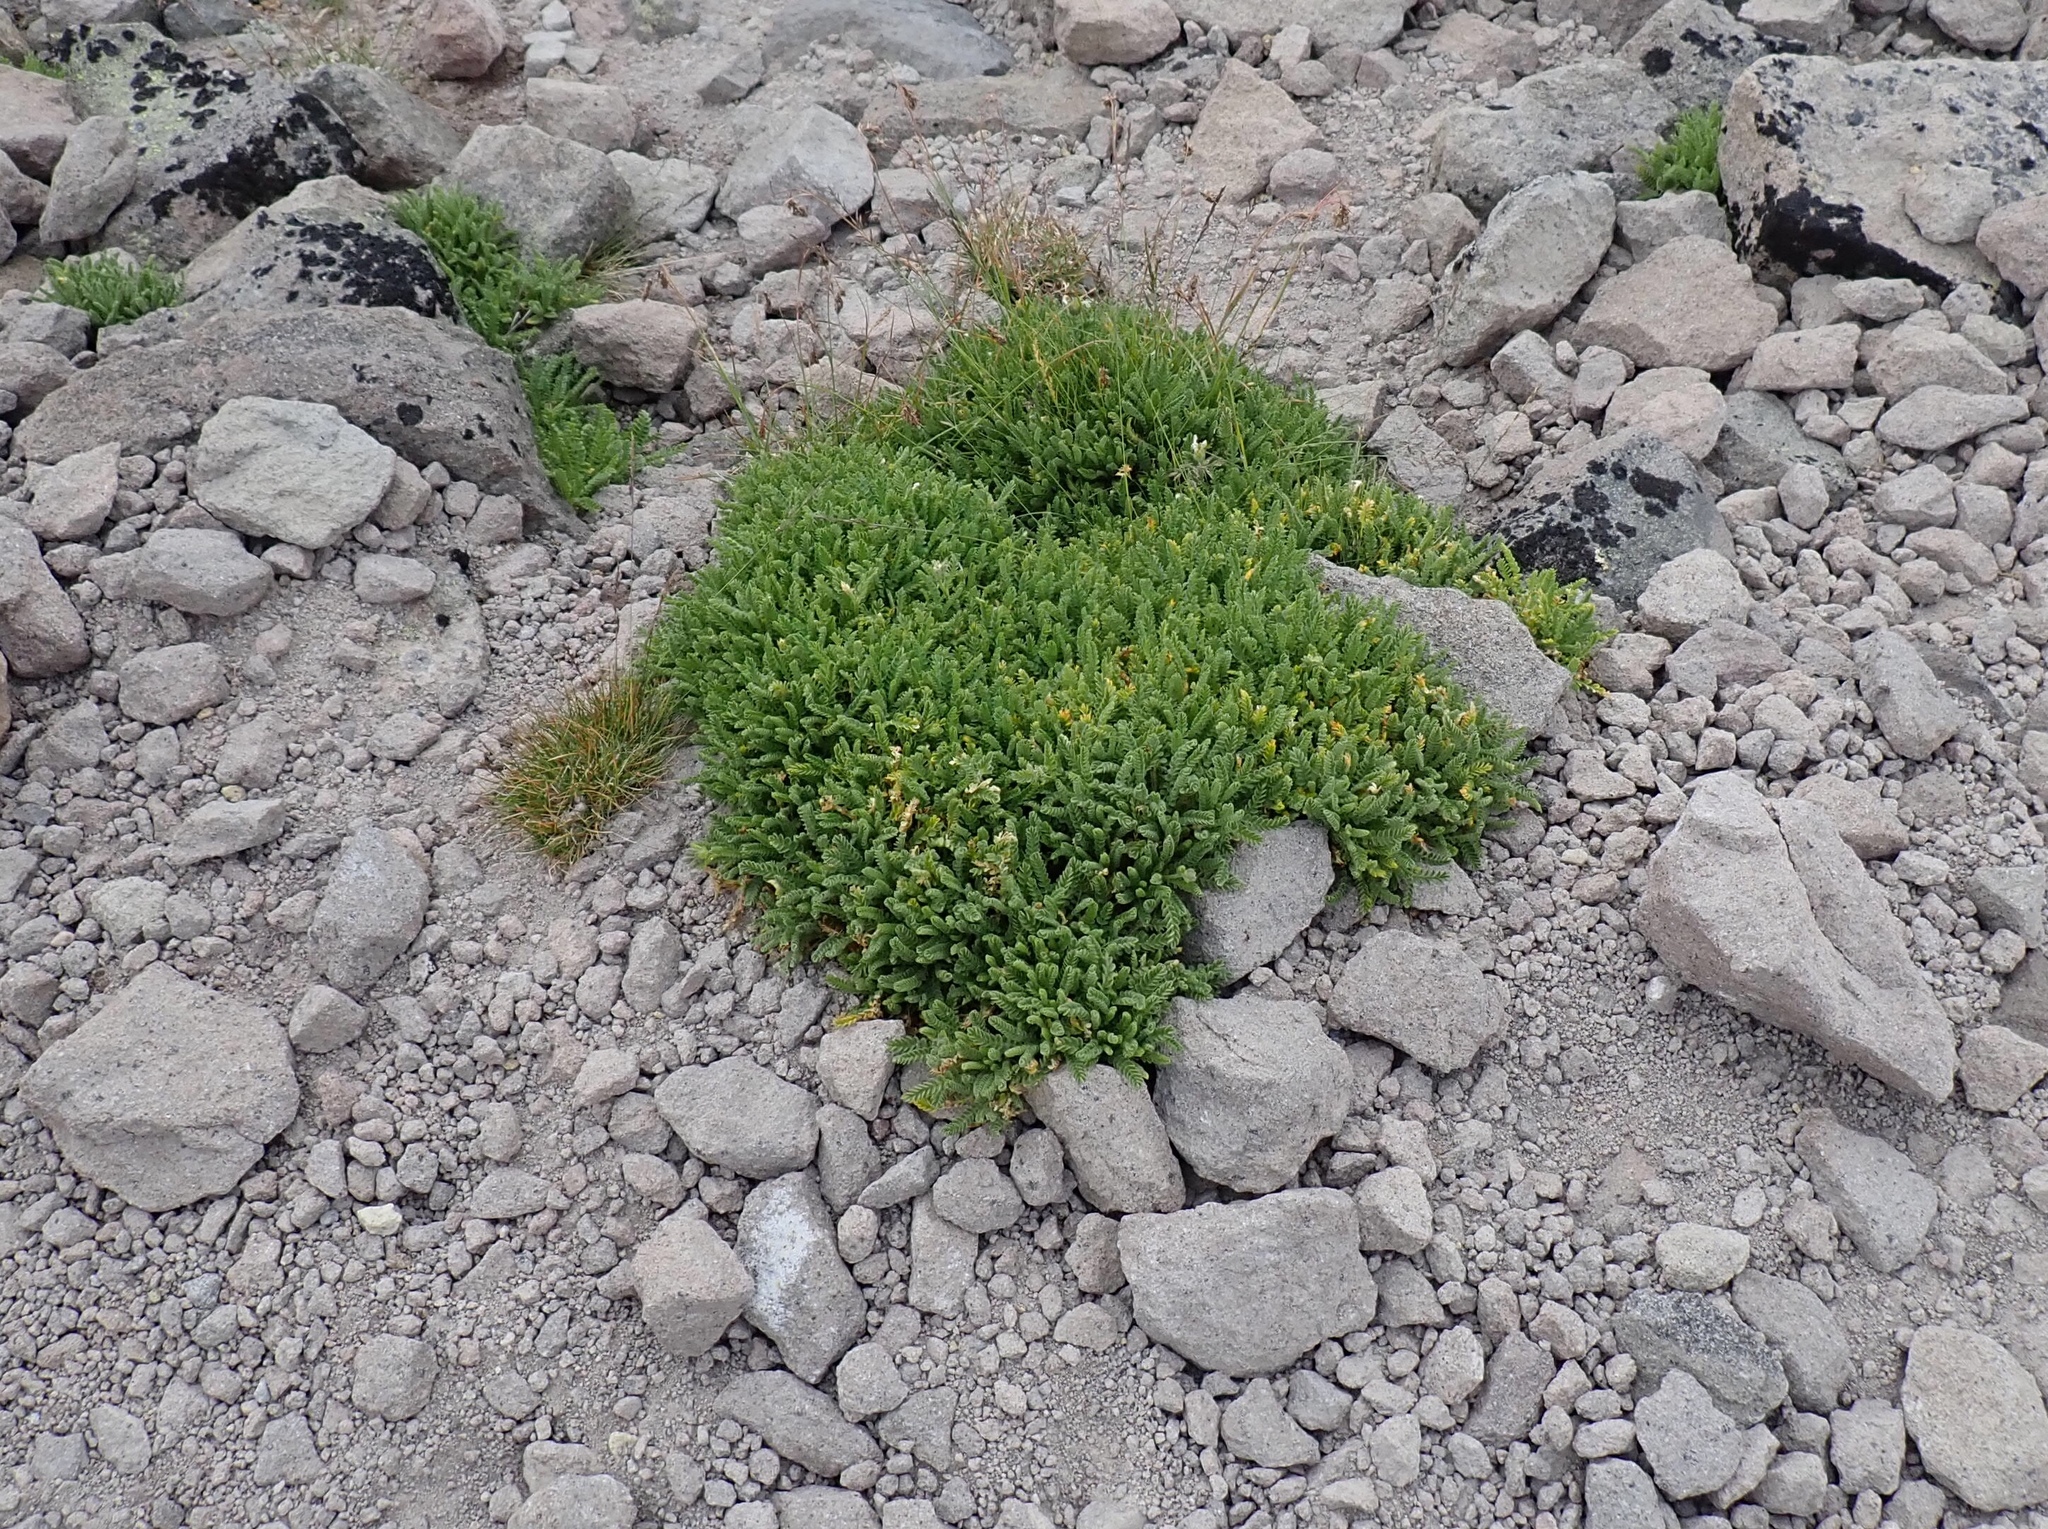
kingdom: Plantae
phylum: Tracheophyta
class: Magnoliopsida
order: Ericales
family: Polemoniaceae
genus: Polemonium
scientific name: Polemonium elegans
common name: Elegant jacob's-ladder
